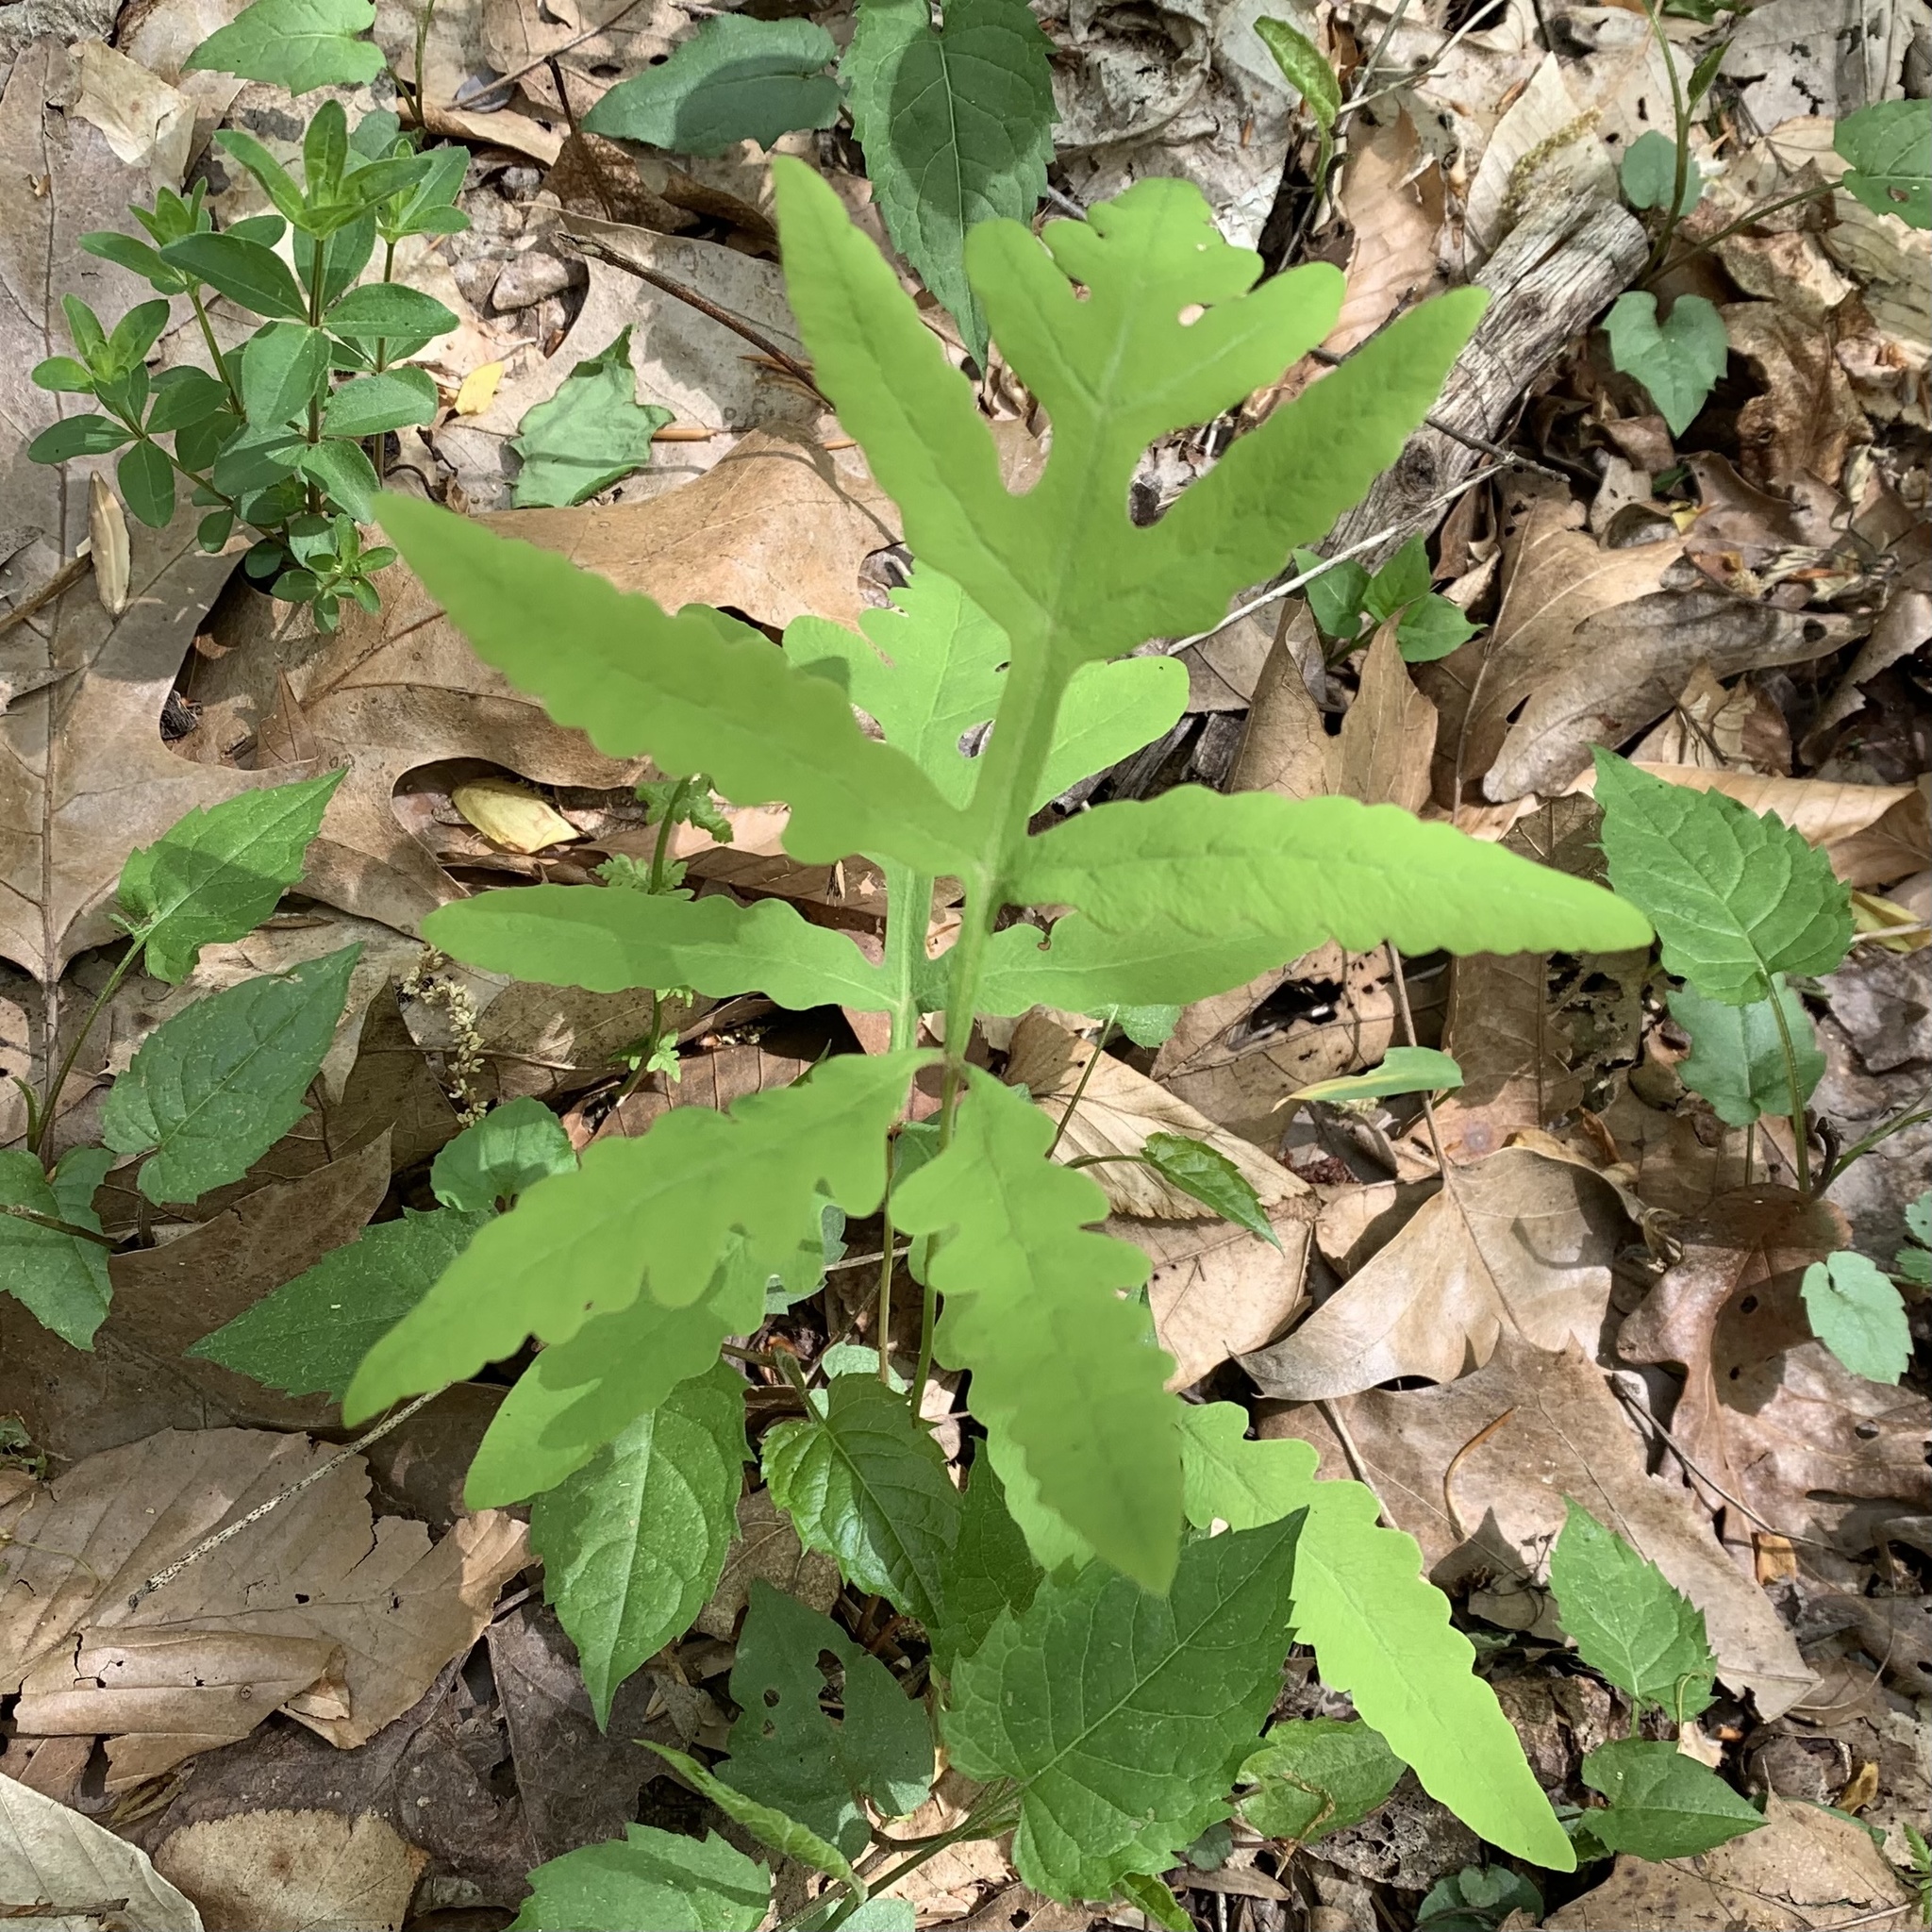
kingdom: Plantae
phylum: Tracheophyta
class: Polypodiopsida
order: Polypodiales
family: Onocleaceae
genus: Onoclea
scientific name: Onoclea sensibilis
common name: Sensitive fern
